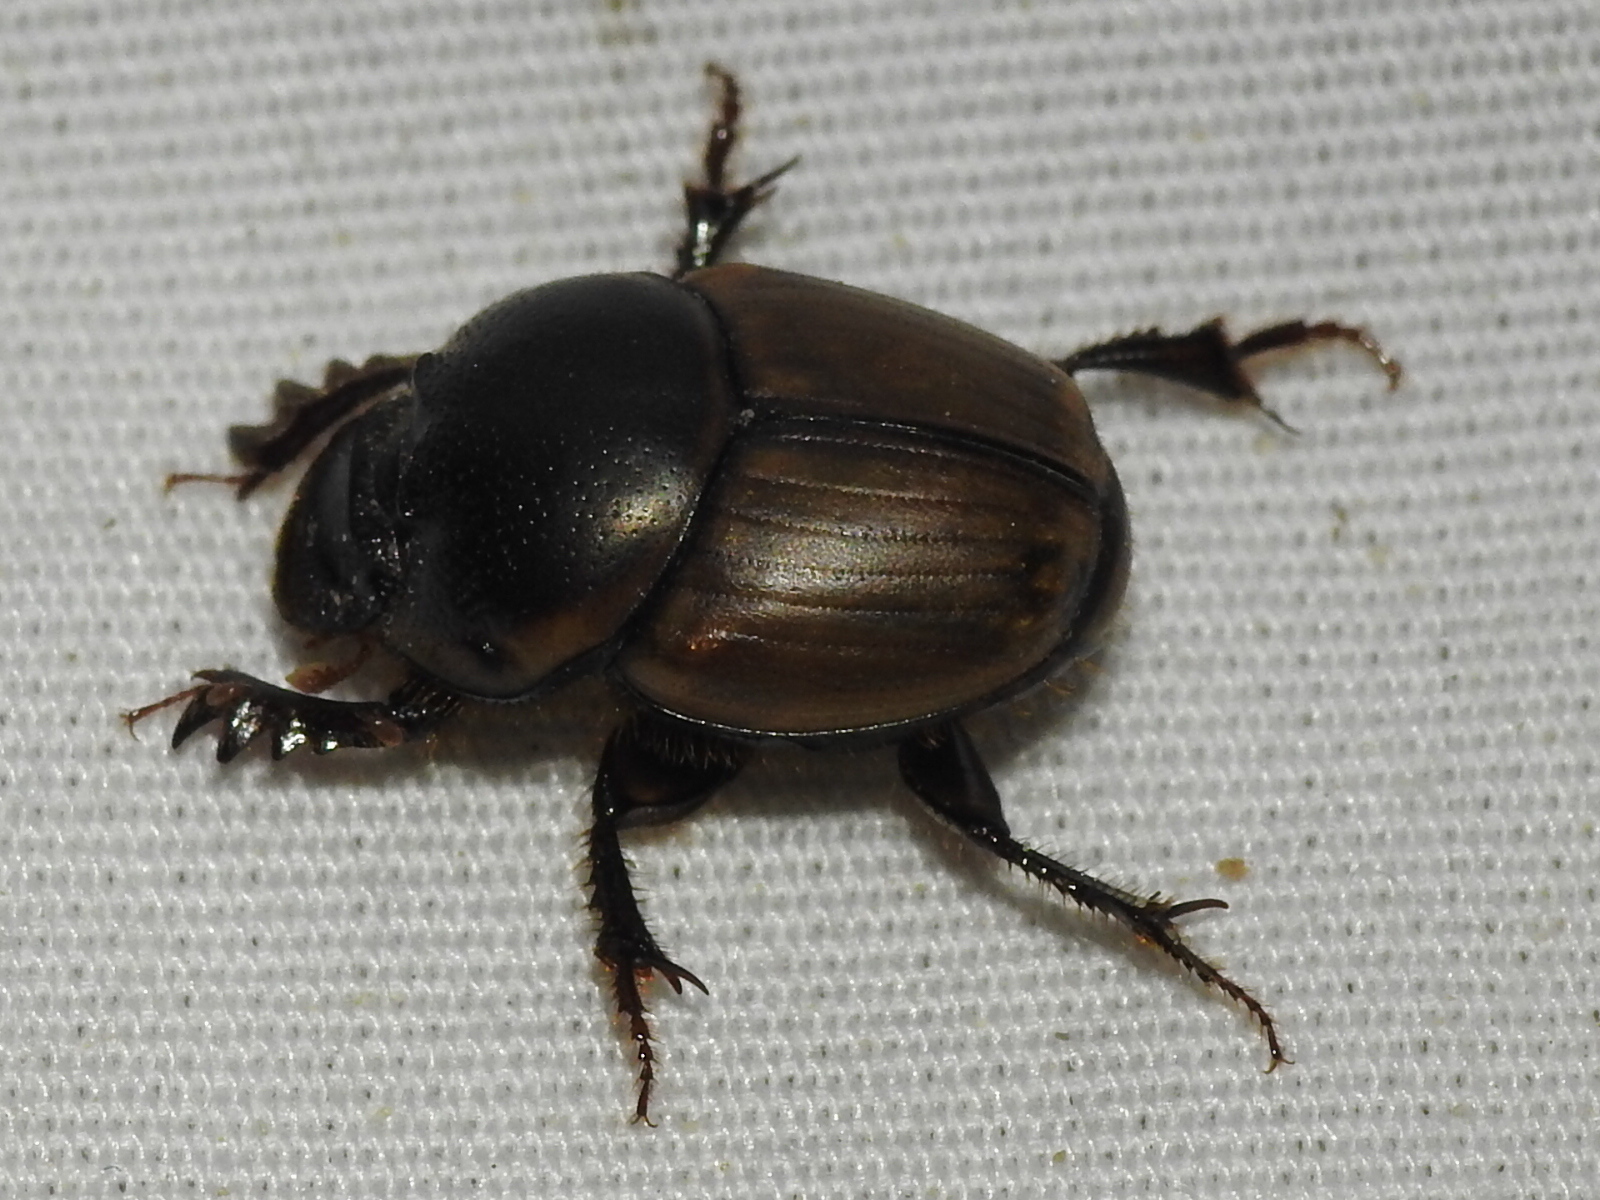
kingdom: Animalia
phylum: Arthropoda
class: Insecta
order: Coleoptera
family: Scarabaeidae
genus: Digitonthophagus
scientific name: Digitonthophagus gazella
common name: Brown dung beetle
